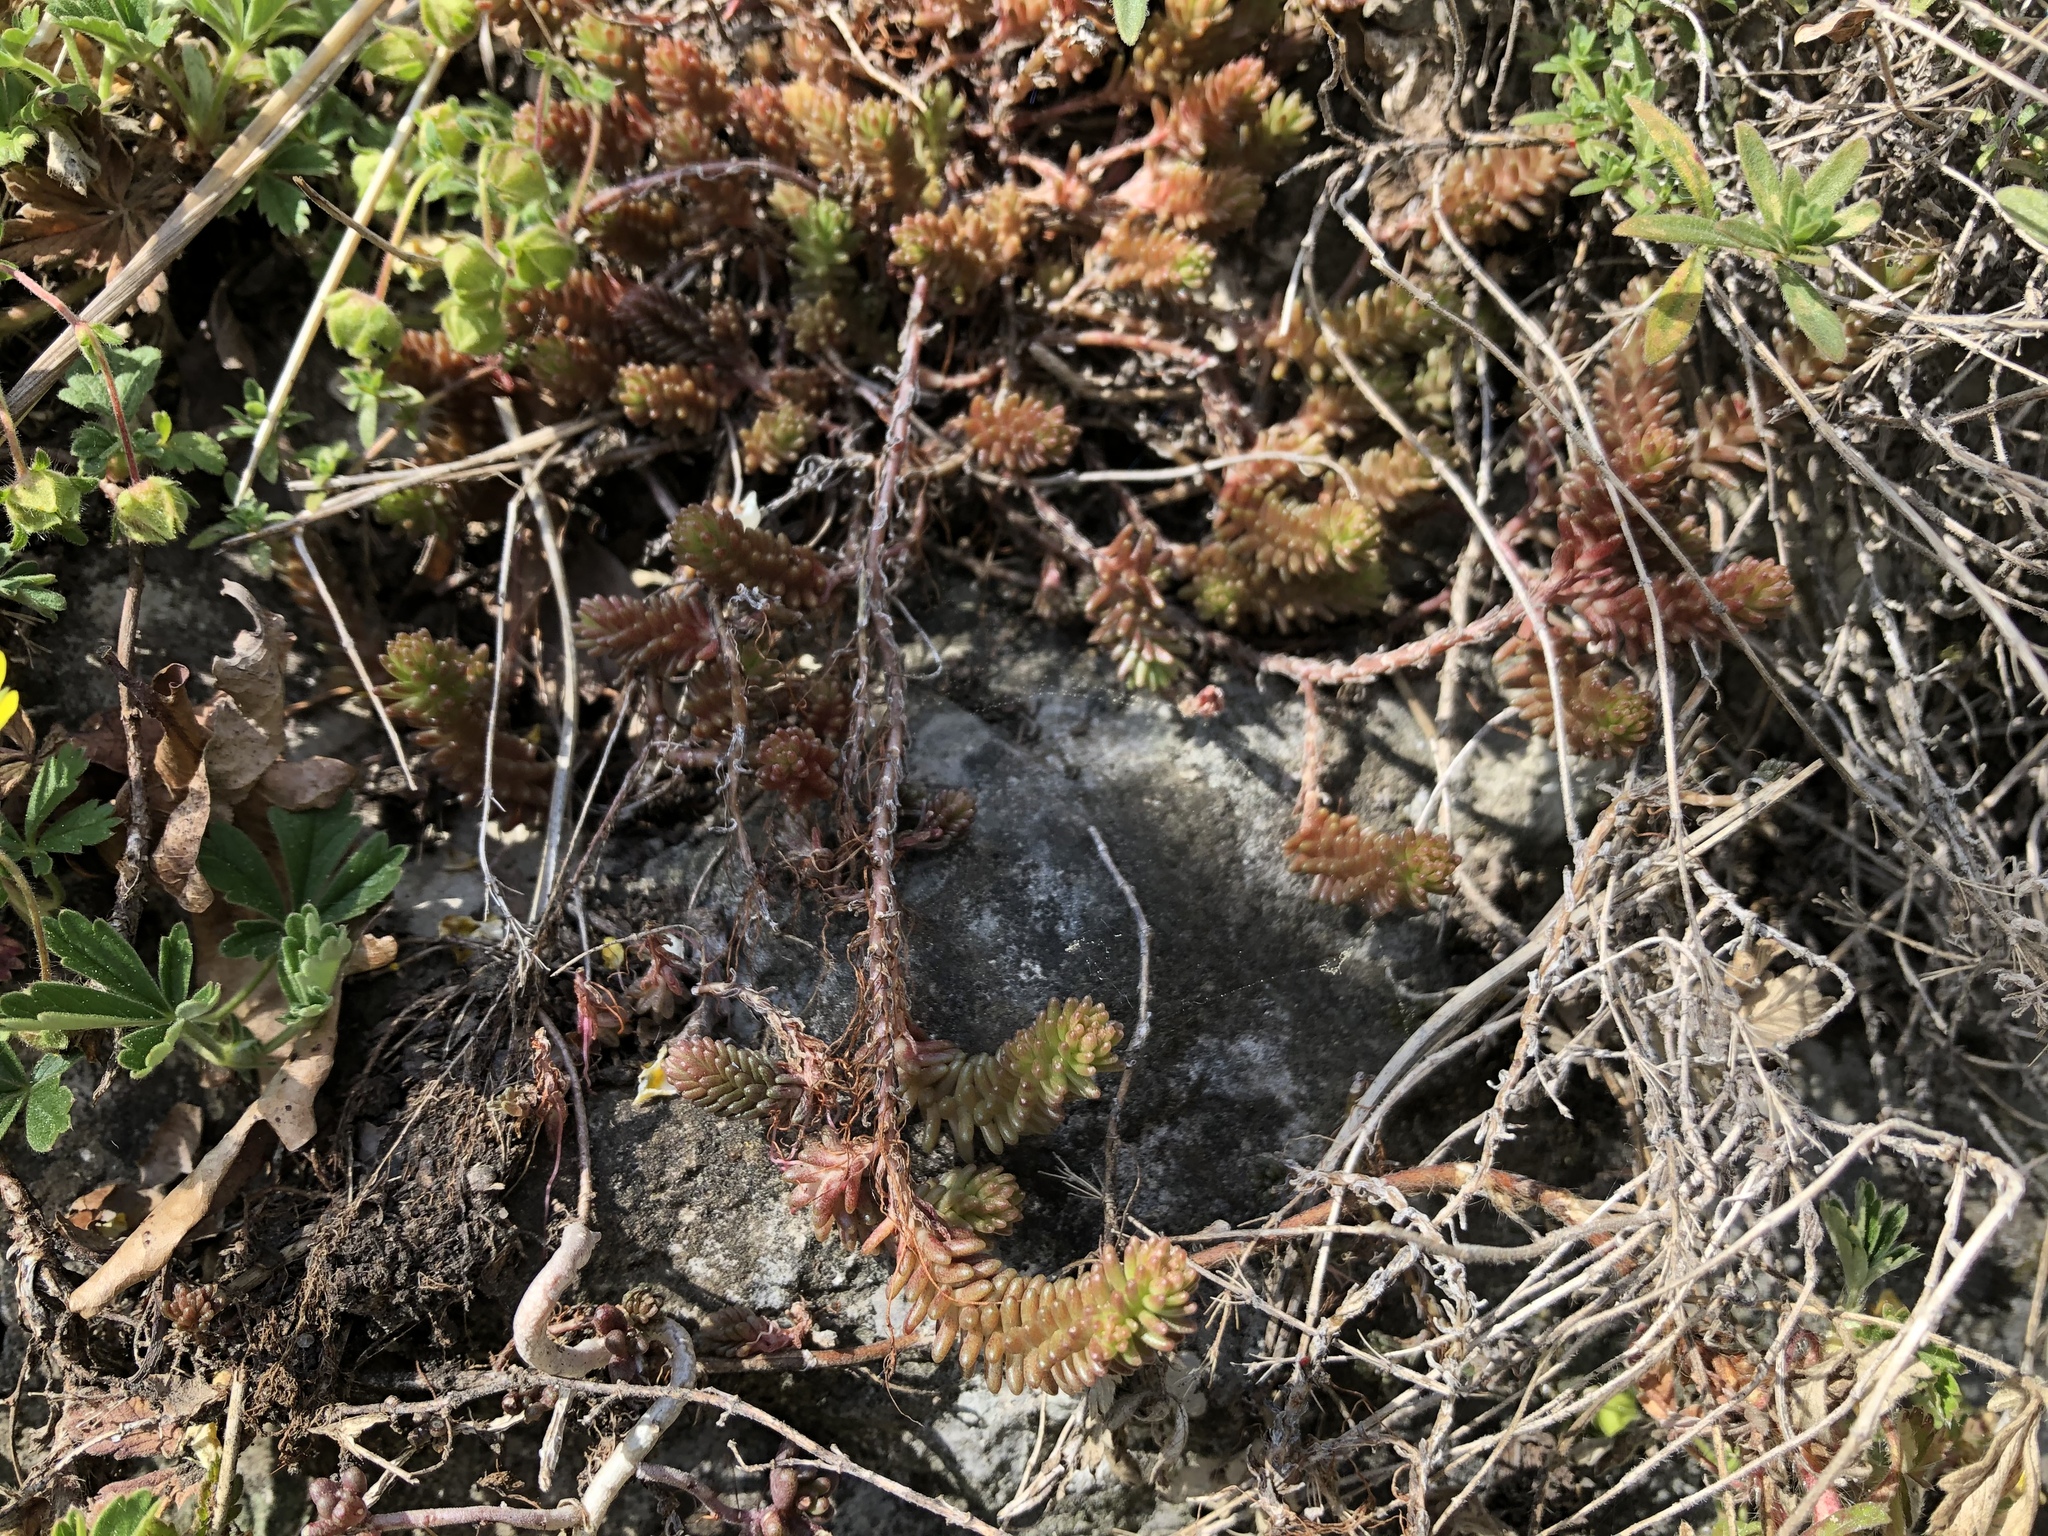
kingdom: Plantae
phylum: Tracheophyta
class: Magnoliopsida
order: Saxifragales
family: Crassulaceae
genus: Sedum
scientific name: Sedum sexangulare
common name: Tasteless stonecrop
